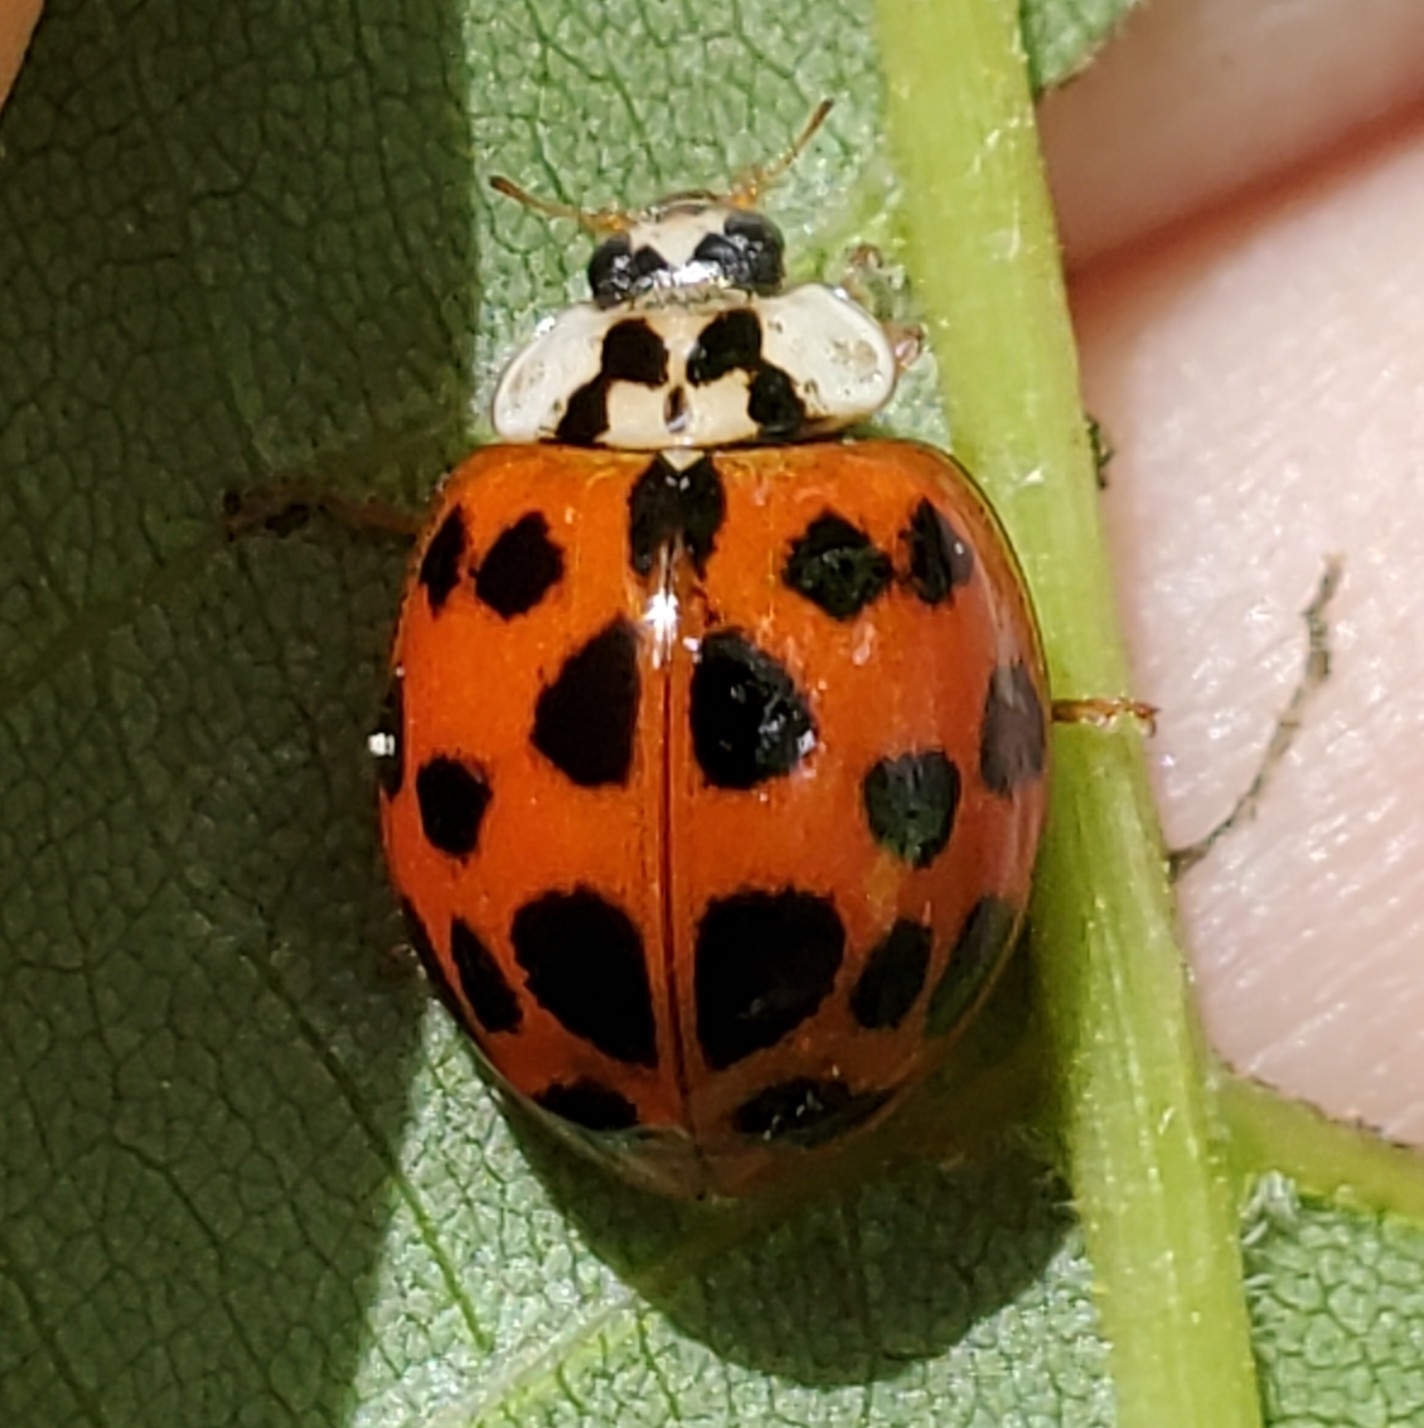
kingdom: Animalia
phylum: Arthropoda
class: Insecta
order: Coleoptera
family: Coccinellidae
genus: Harmonia
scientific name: Harmonia axyridis
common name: Harlequin ladybird
